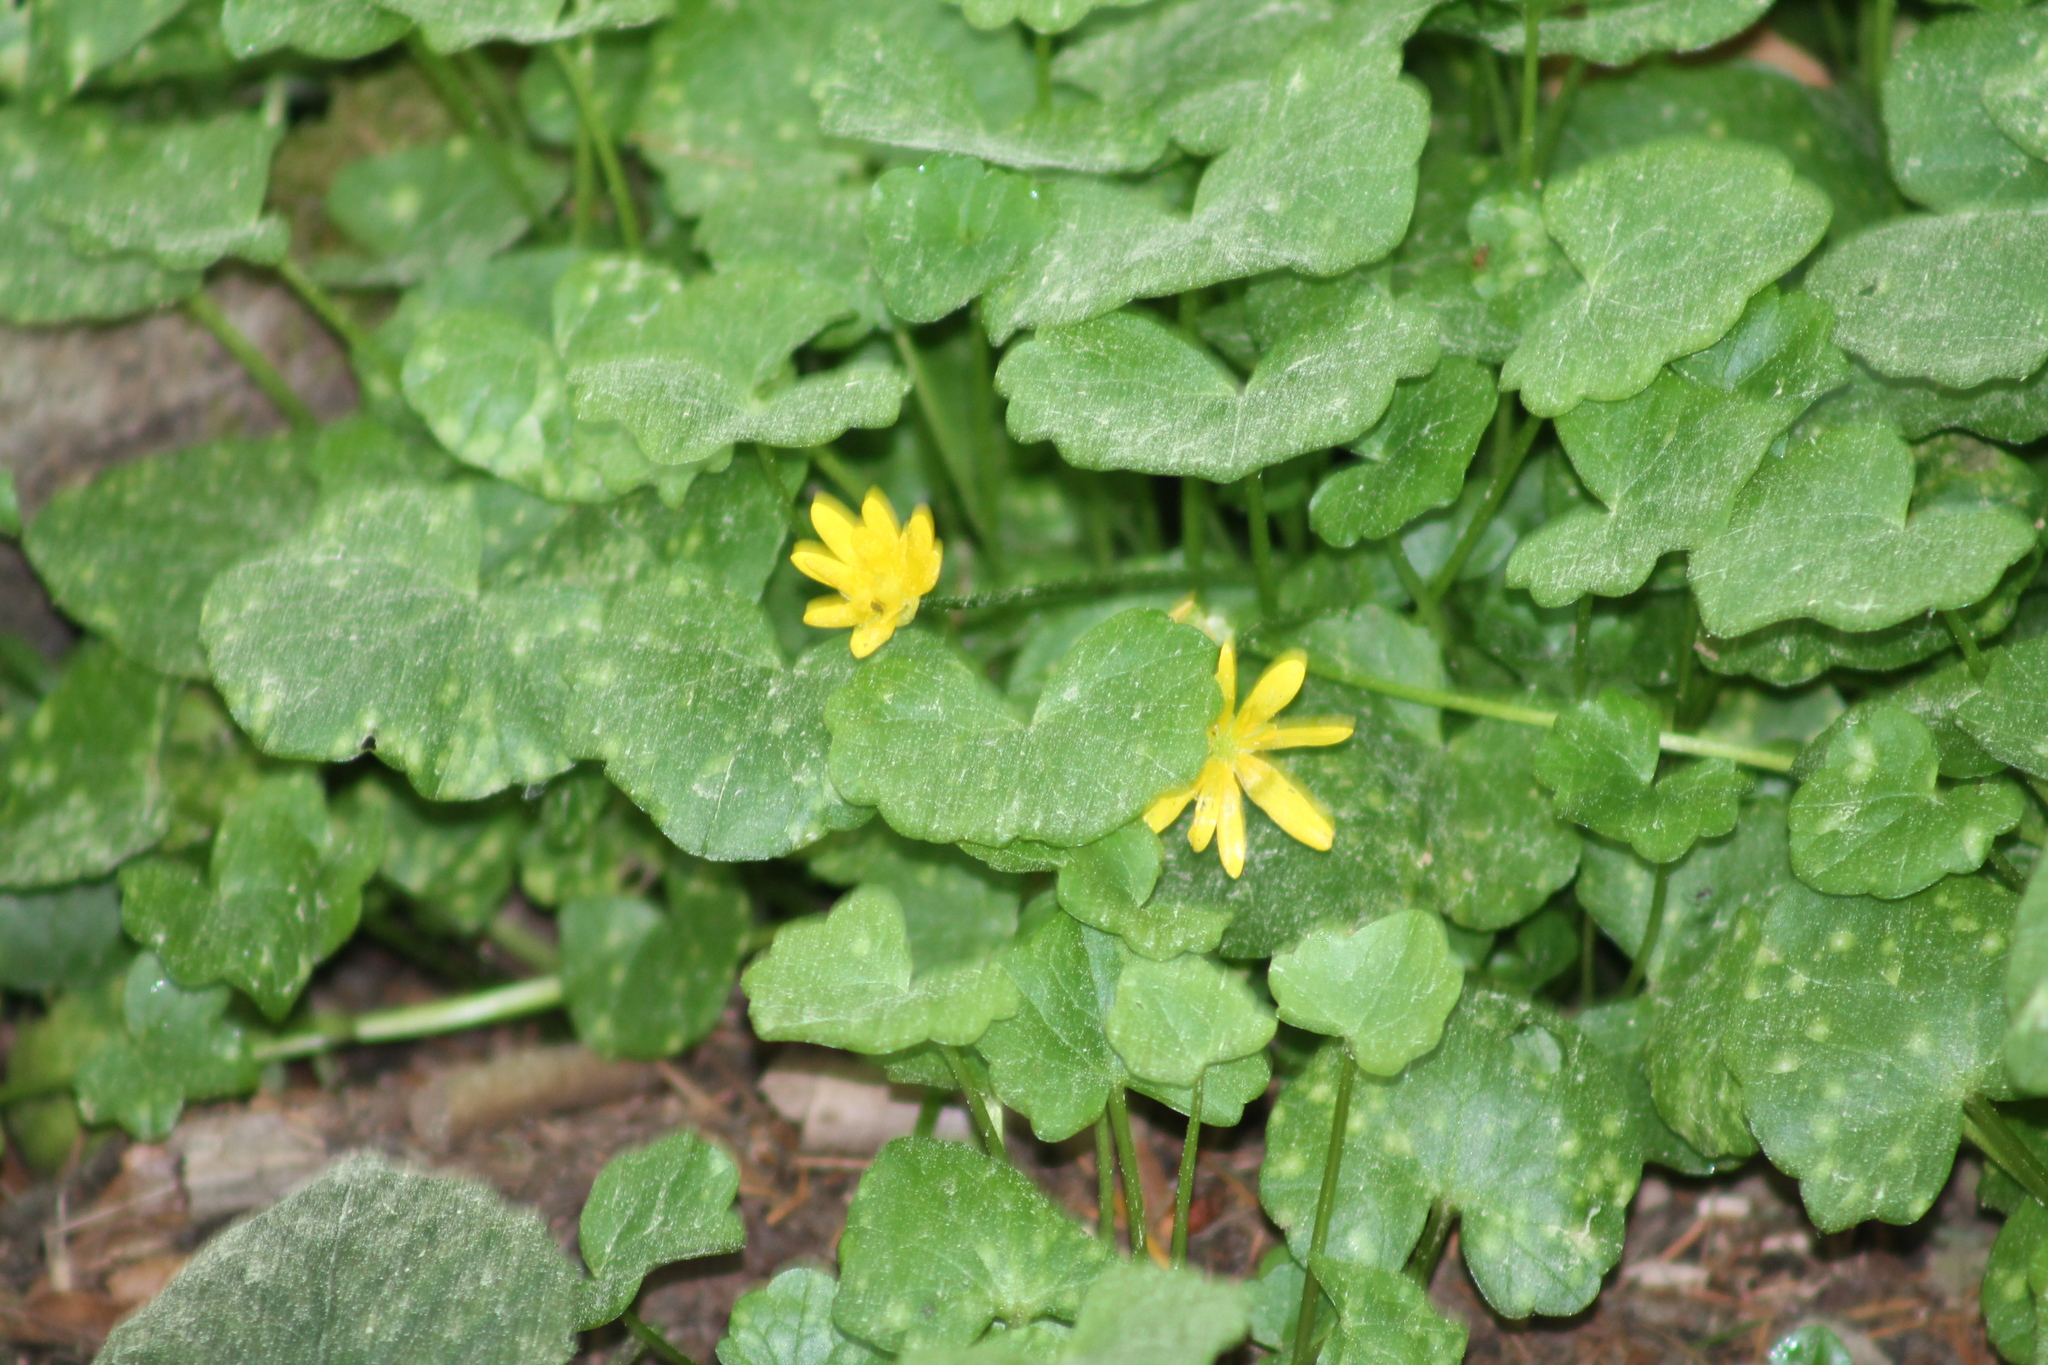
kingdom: Plantae
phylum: Tracheophyta
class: Magnoliopsida
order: Ranunculales
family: Ranunculaceae
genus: Ficaria
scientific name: Ficaria verna
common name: Lesser celandine
